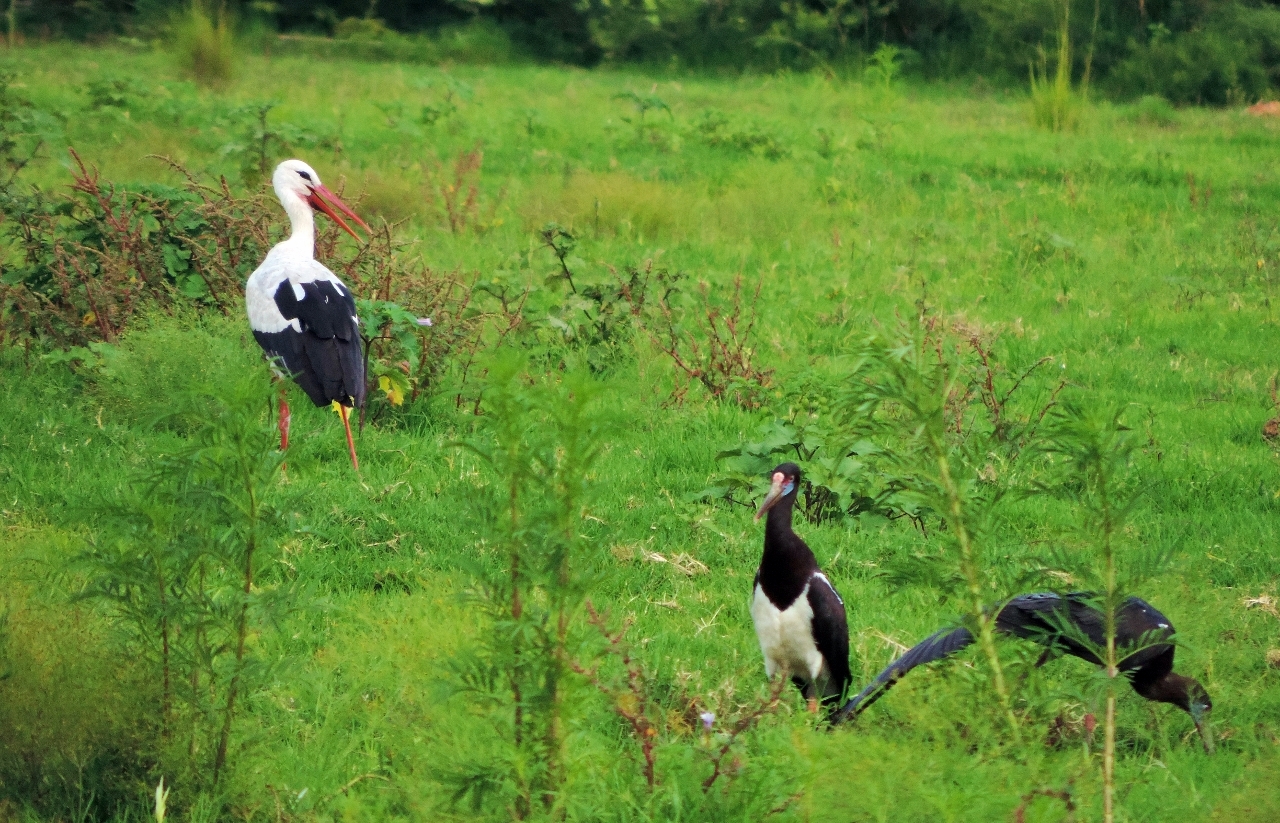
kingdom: Animalia
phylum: Chordata
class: Aves
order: Ciconiiformes
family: Ciconiidae
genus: Ciconia
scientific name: Ciconia abdimii
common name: Abdim's stork
